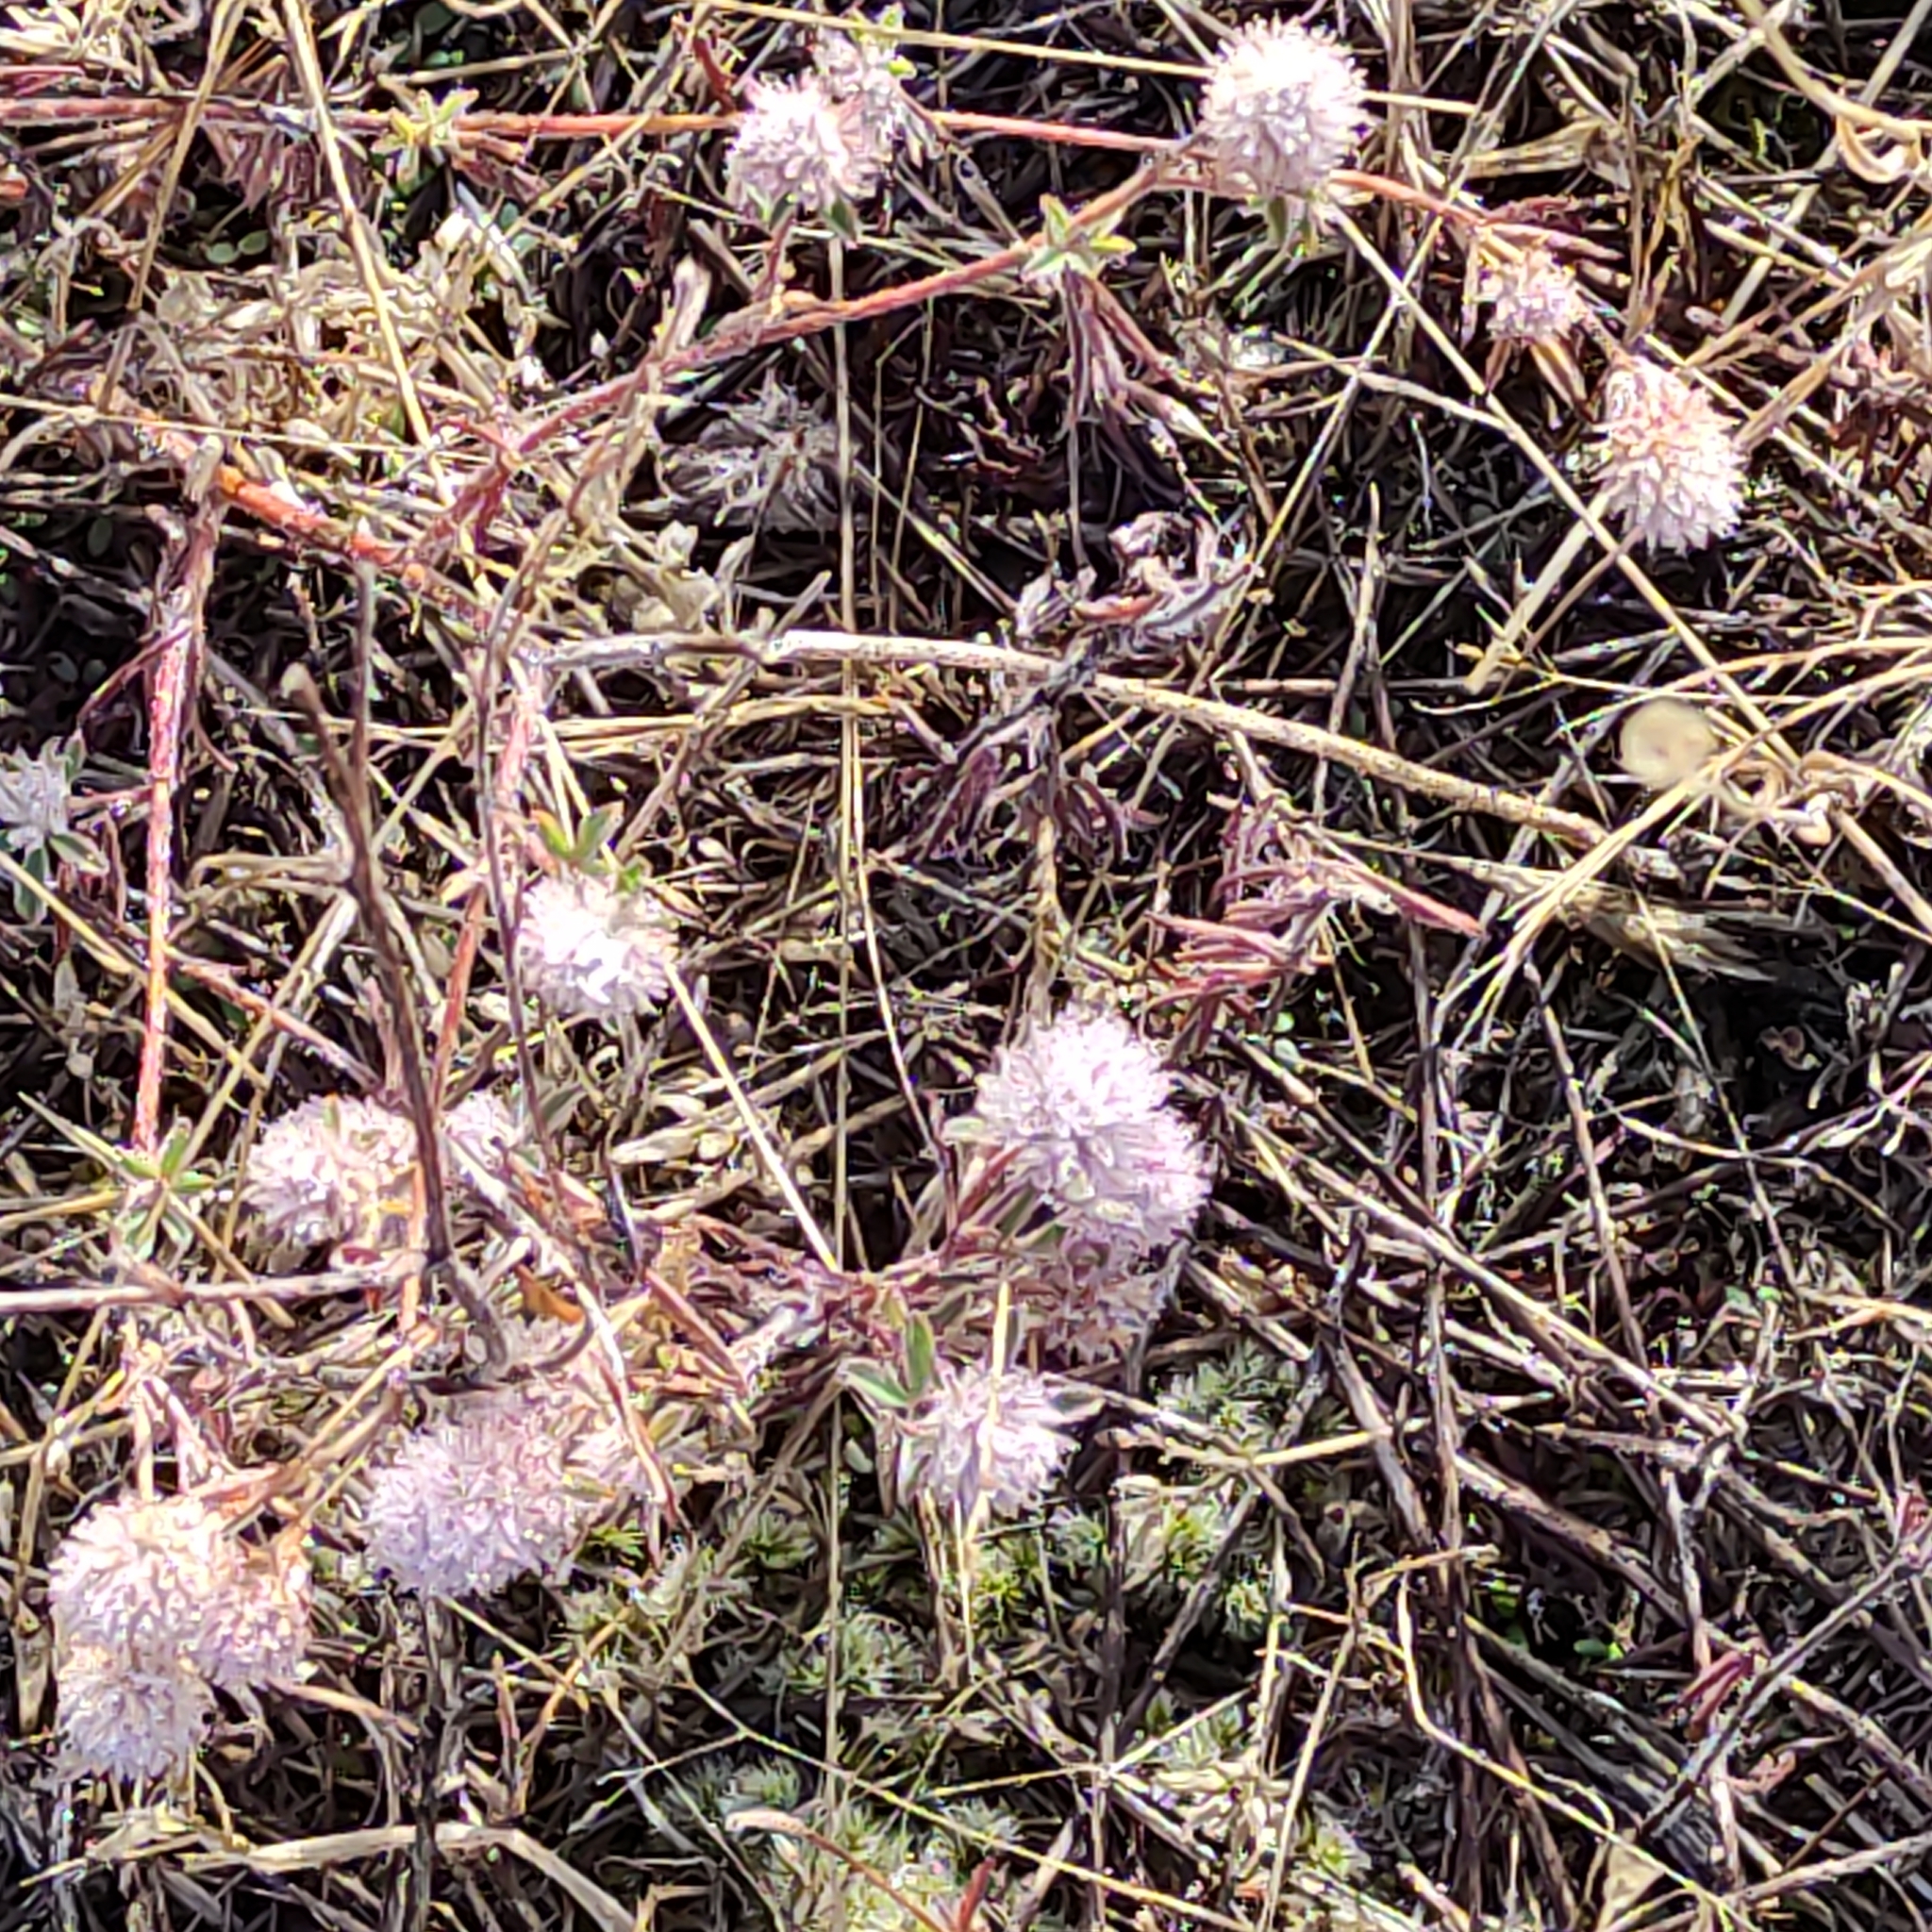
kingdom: Plantae
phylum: Tracheophyta
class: Magnoliopsida
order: Fabales
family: Fabaceae
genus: Trifolium
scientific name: Trifolium arvense
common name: Hare's-foot clover
